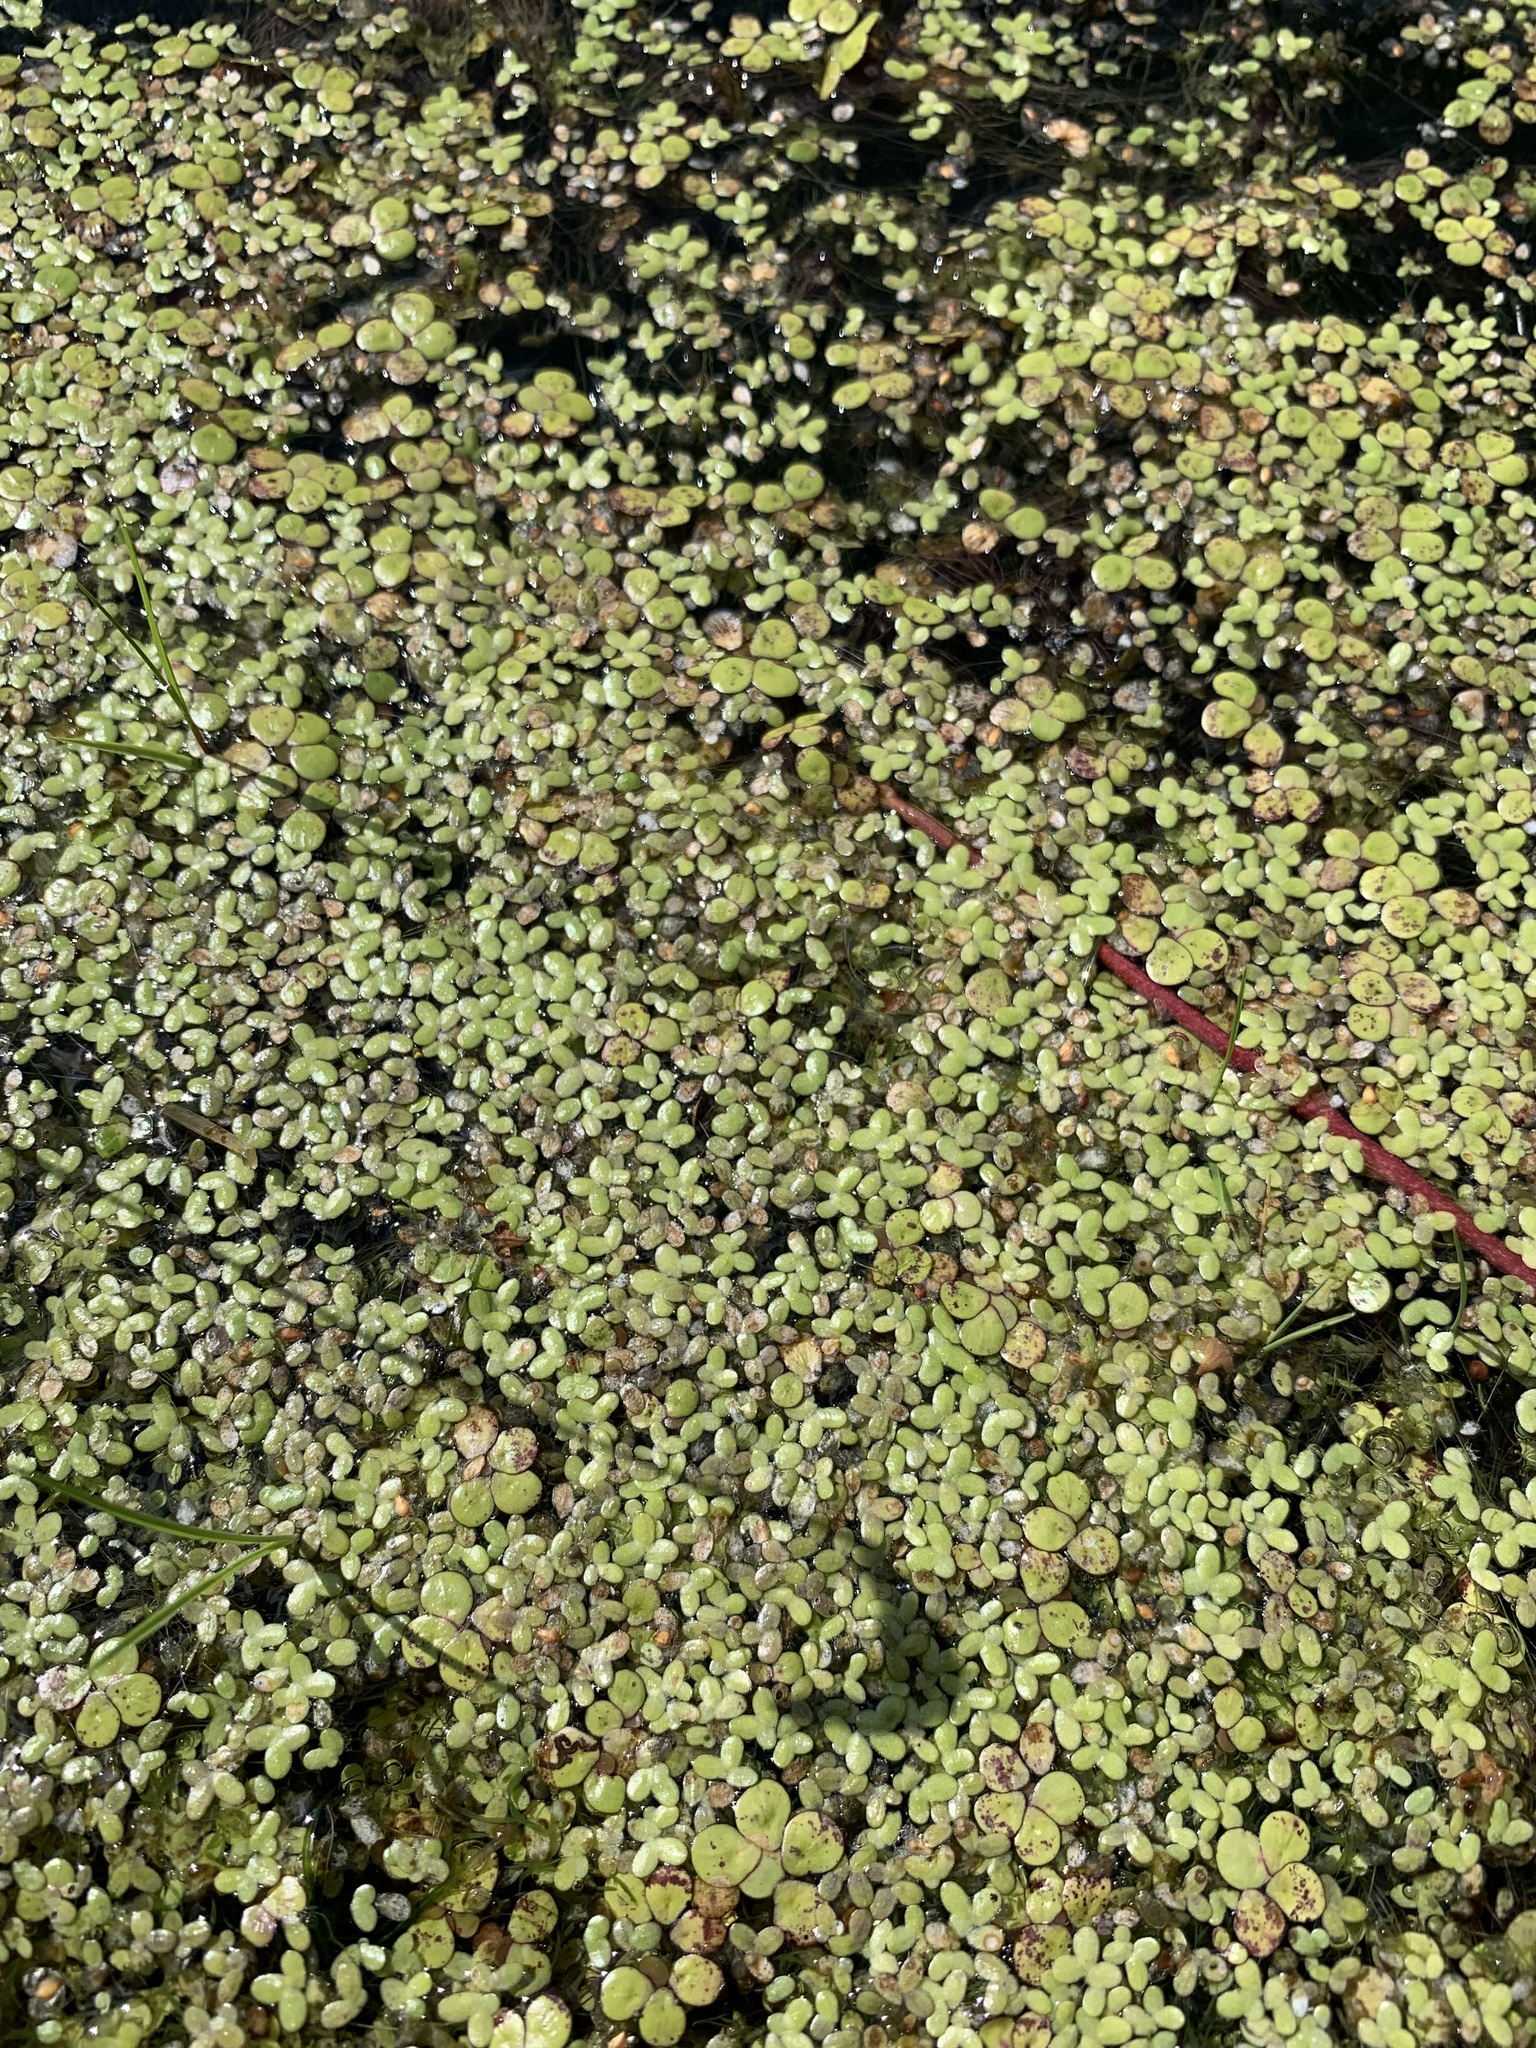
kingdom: Plantae
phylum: Tracheophyta
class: Liliopsida
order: Alismatales
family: Araceae
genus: Lemna
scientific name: Lemna turionifera
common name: Perennial duckweed
